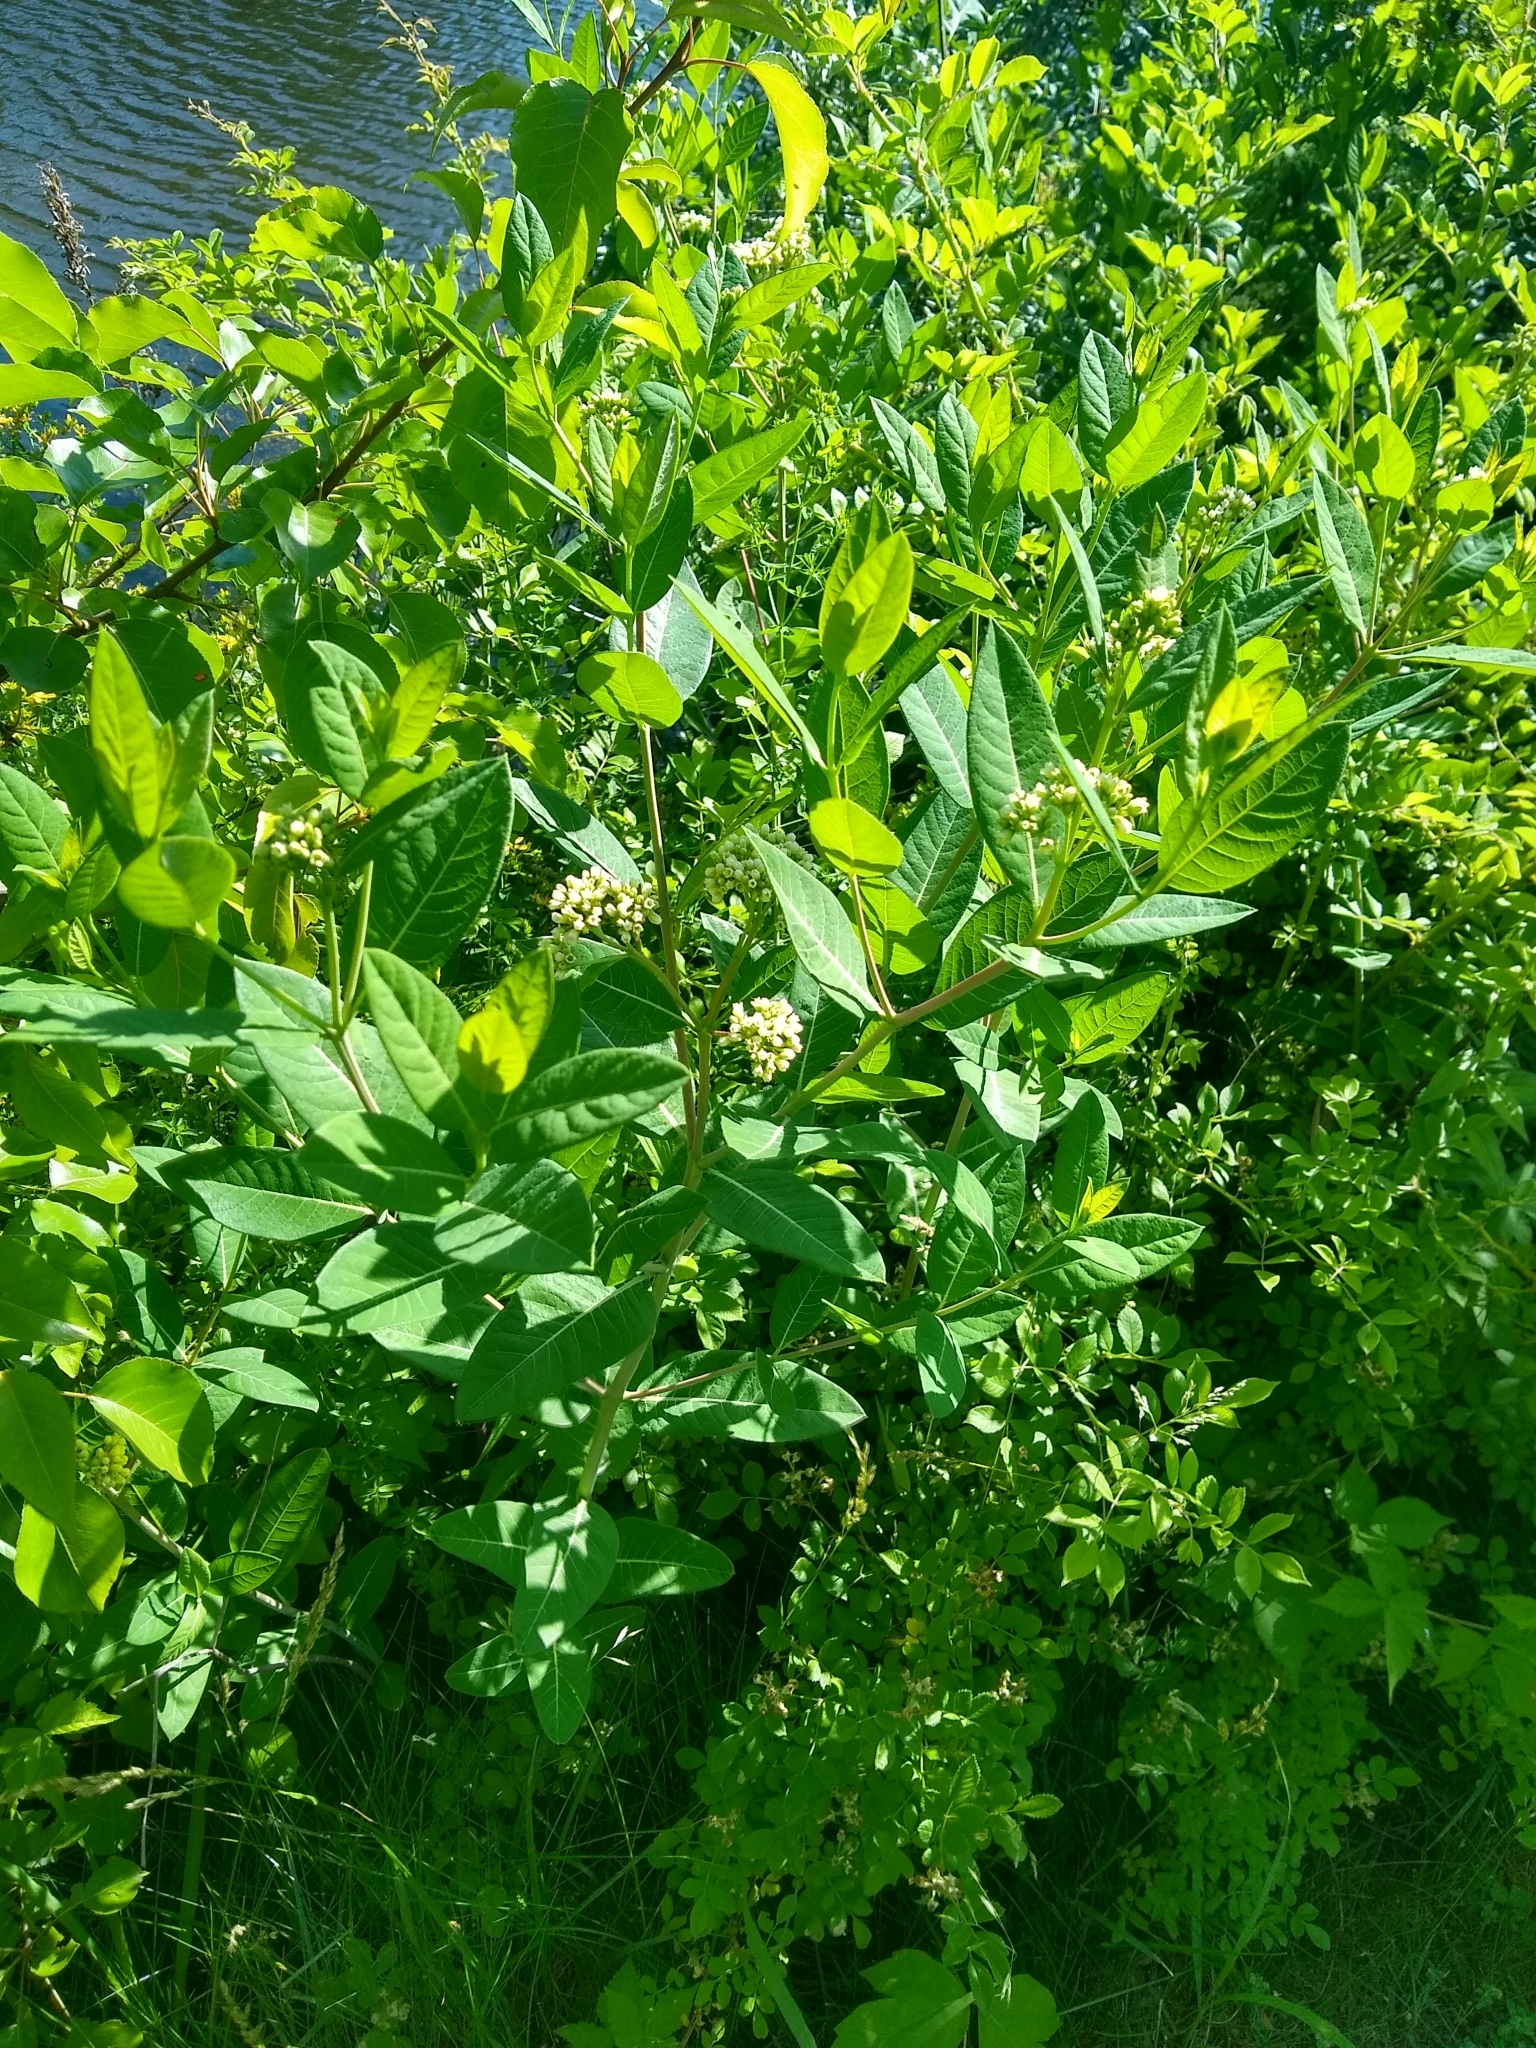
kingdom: Plantae
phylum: Tracheophyta
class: Magnoliopsida
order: Gentianales
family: Apocynaceae
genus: Apocynum
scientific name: Apocynum cannabinum
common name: Hemp dogbane
